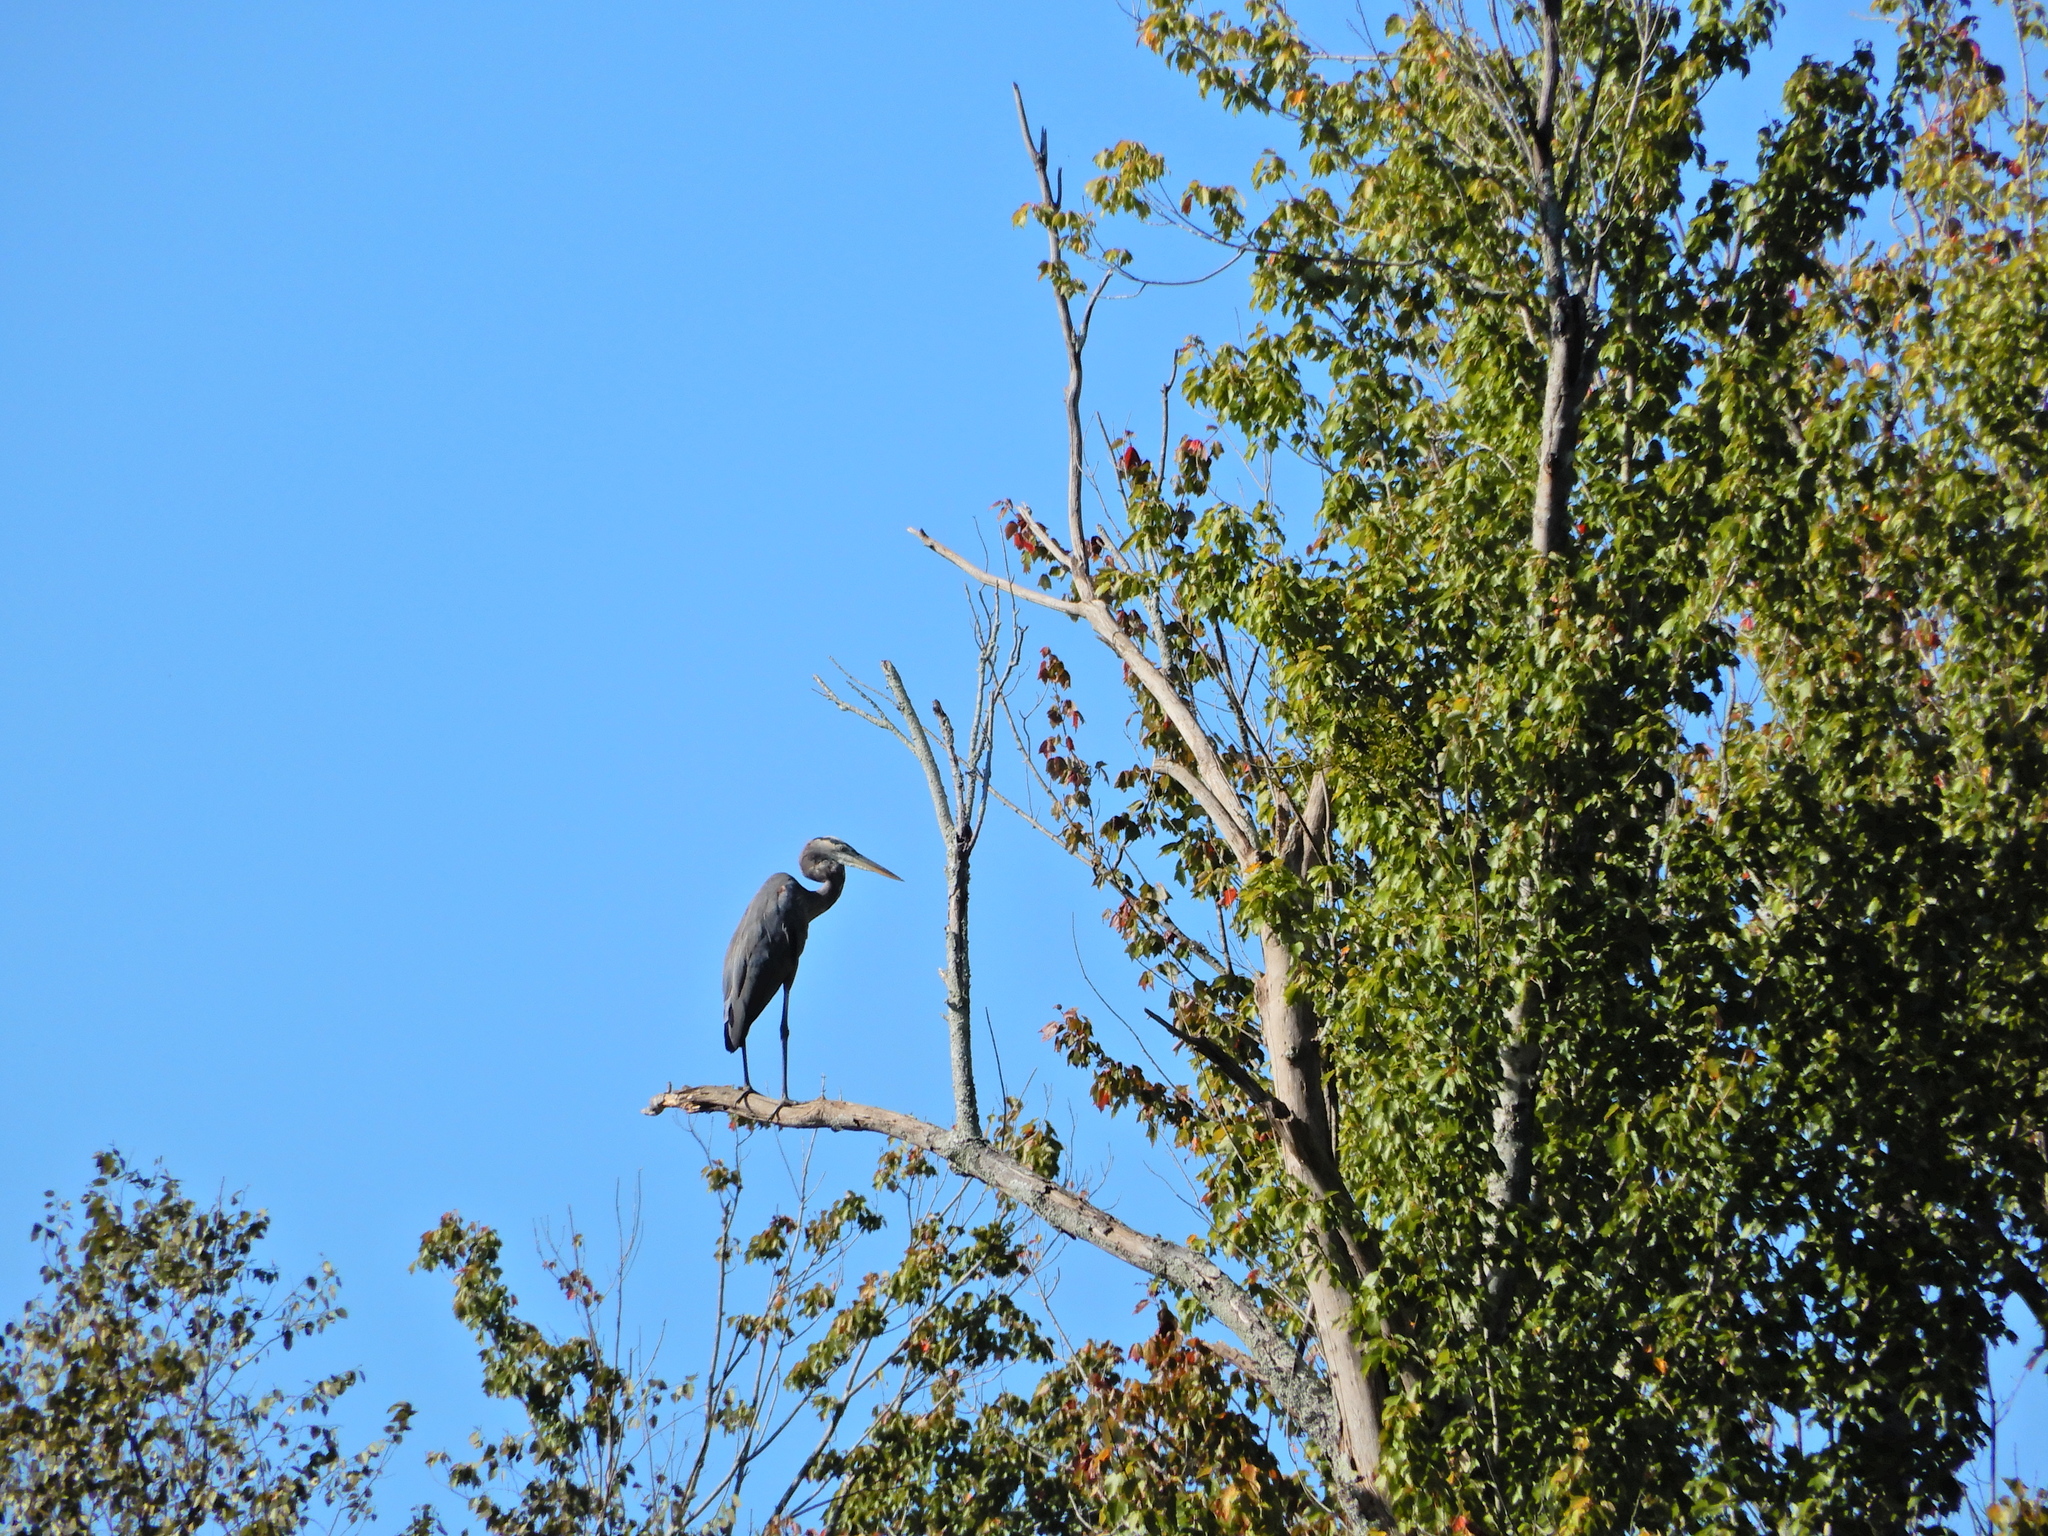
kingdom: Animalia
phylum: Chordata
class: Aves
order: Pelecaniformes
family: Ardeidae
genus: Ardea
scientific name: Ardea herodias
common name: Great blue heron
